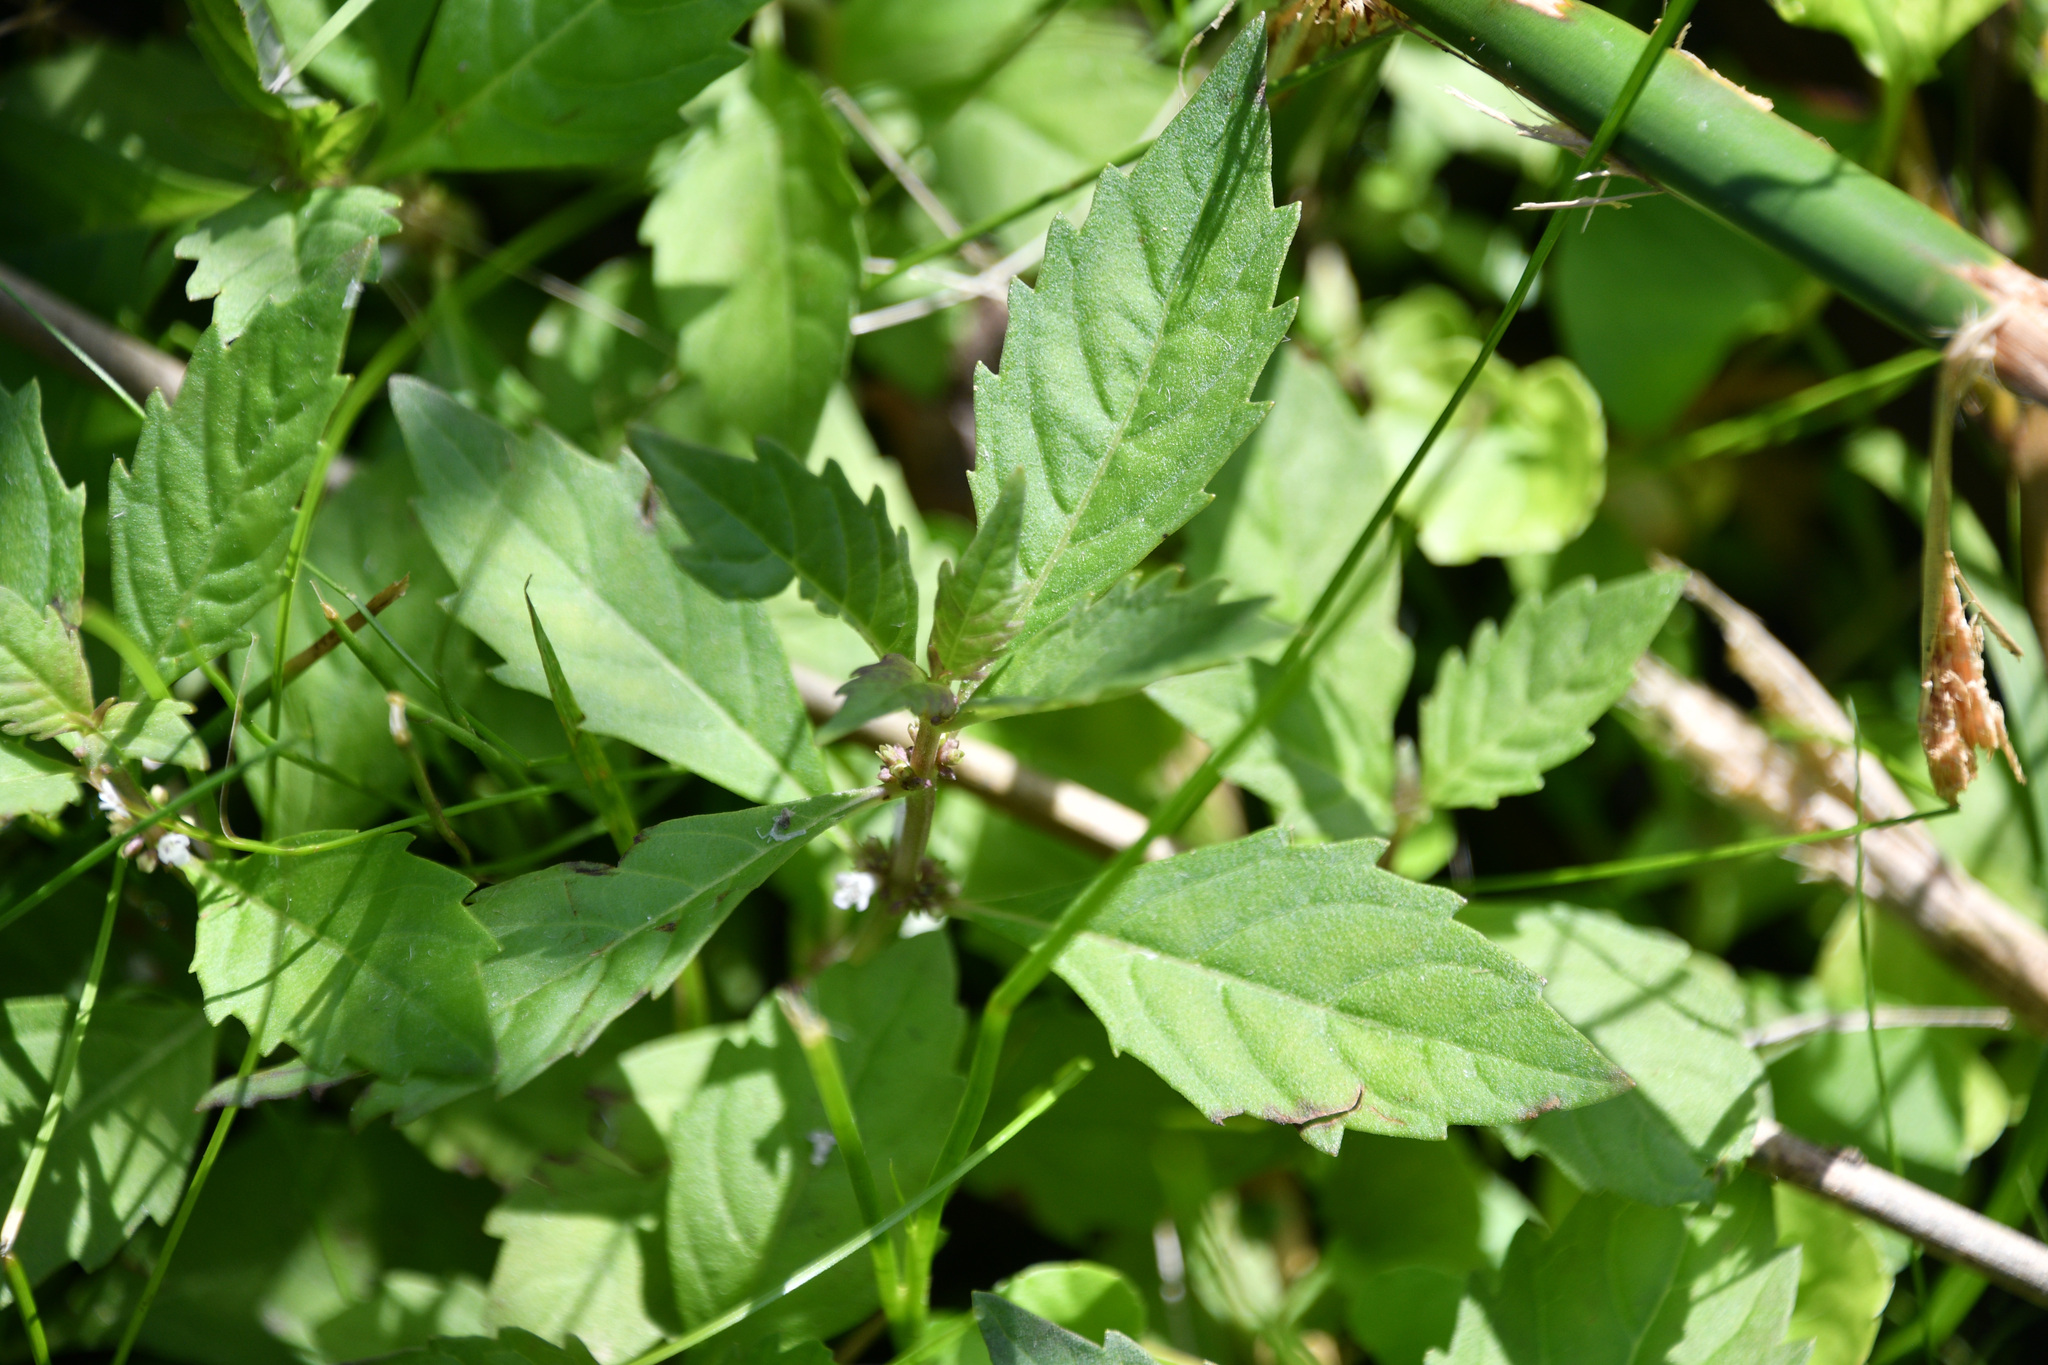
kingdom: Plantae
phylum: Tracheophyta
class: Magnoliopsida
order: Lamiales
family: Lamiaceae
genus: Lycopus
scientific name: Lycopus uniflorus
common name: Northern bugleweed
